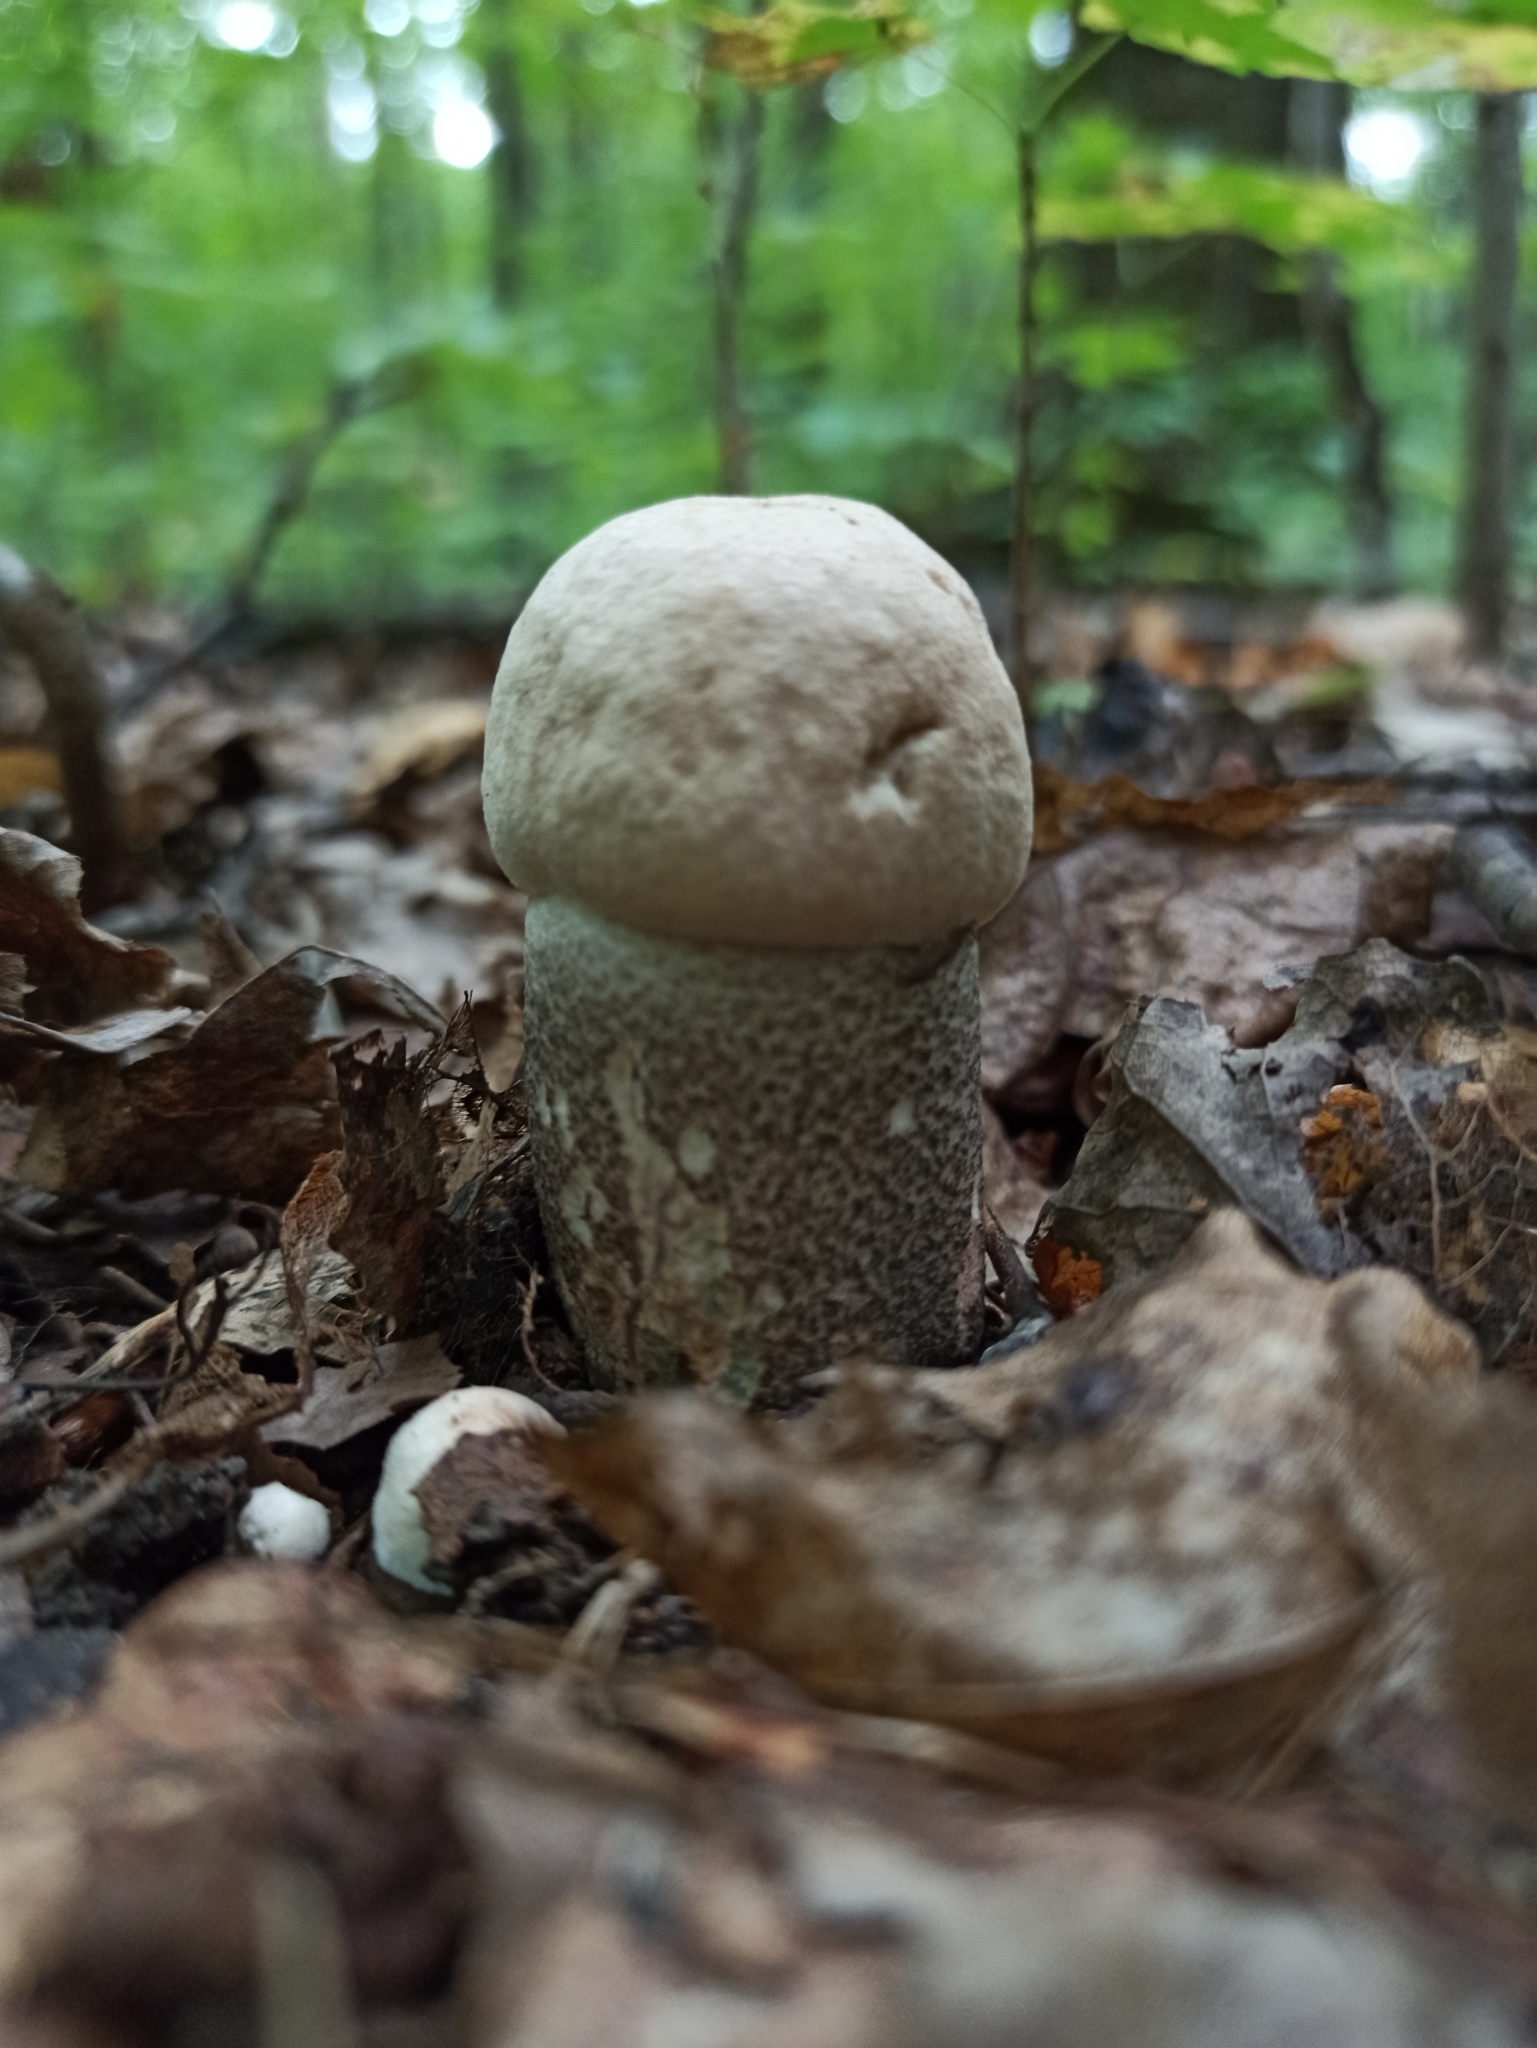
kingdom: Fungi
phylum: Basidiomycota
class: Agaricomycetes
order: Boletales
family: Boletaceae
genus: Leccinum
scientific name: Leccinum duriusculum
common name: Slate bolete
